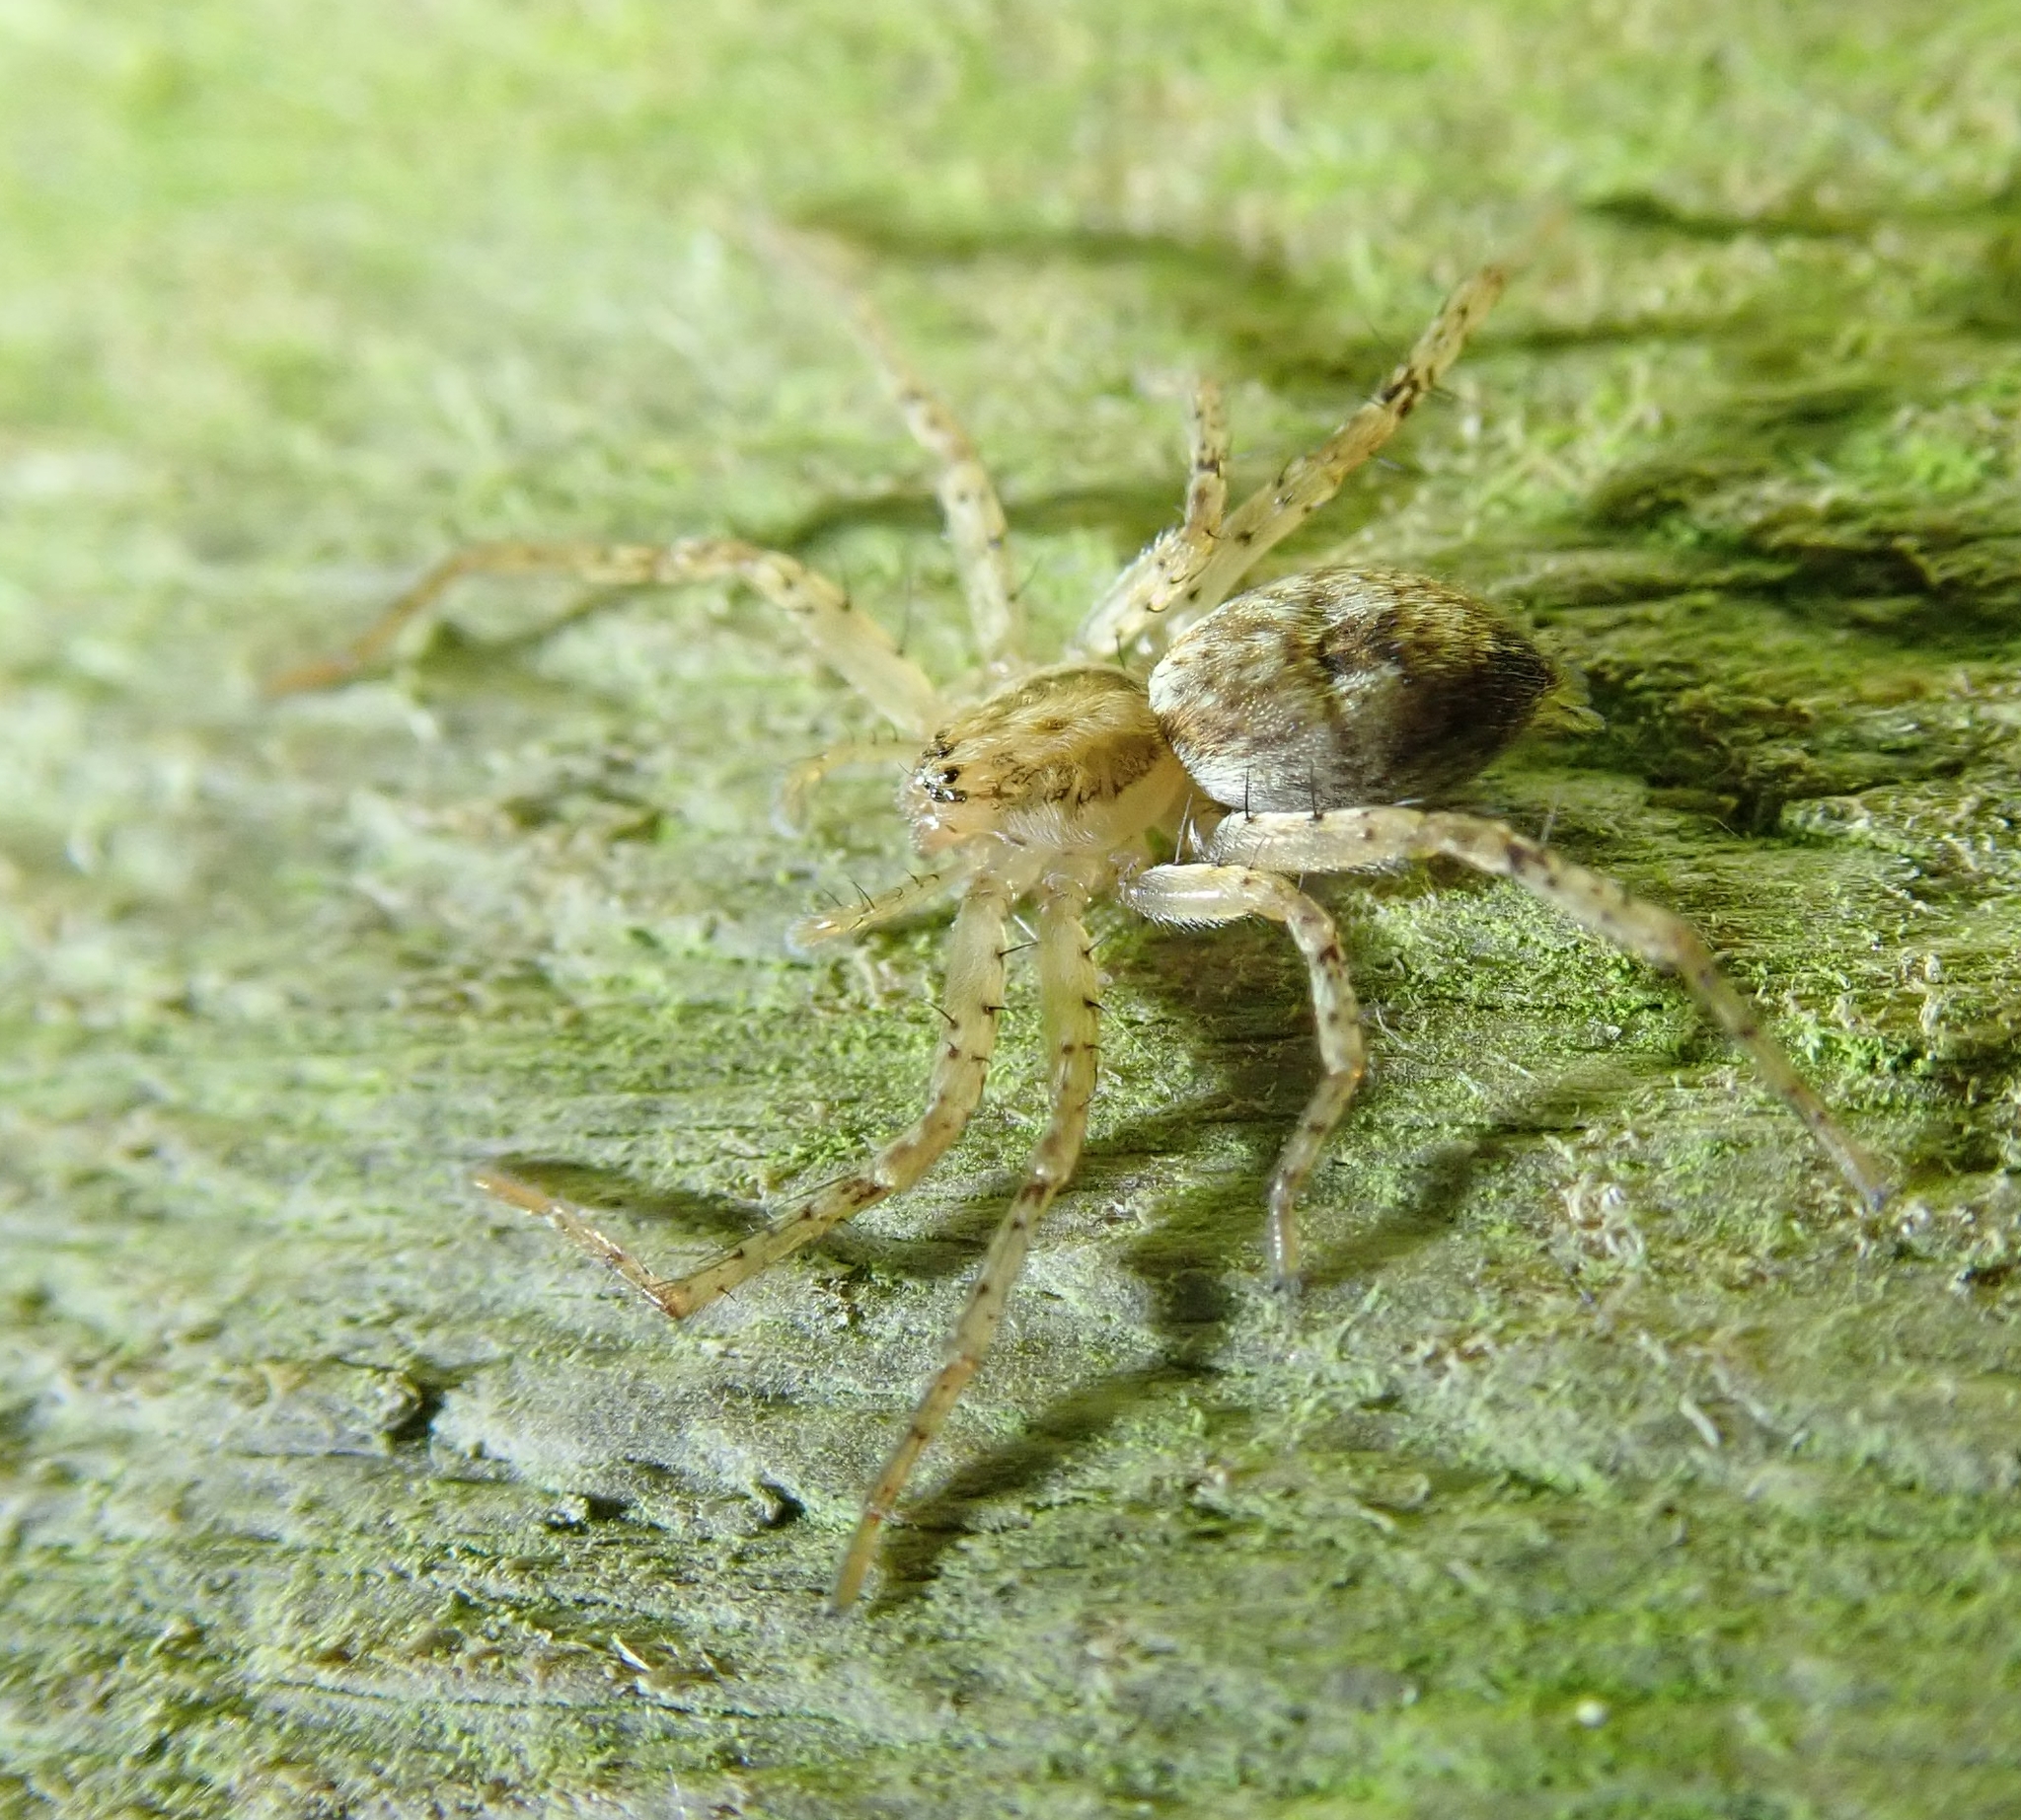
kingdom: Animalia
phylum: Arthropoda
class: Arachnida
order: Araneae
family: Anyphaenidae
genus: Anyphaena
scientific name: Anyphaena accentuata
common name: Buzzing spider
